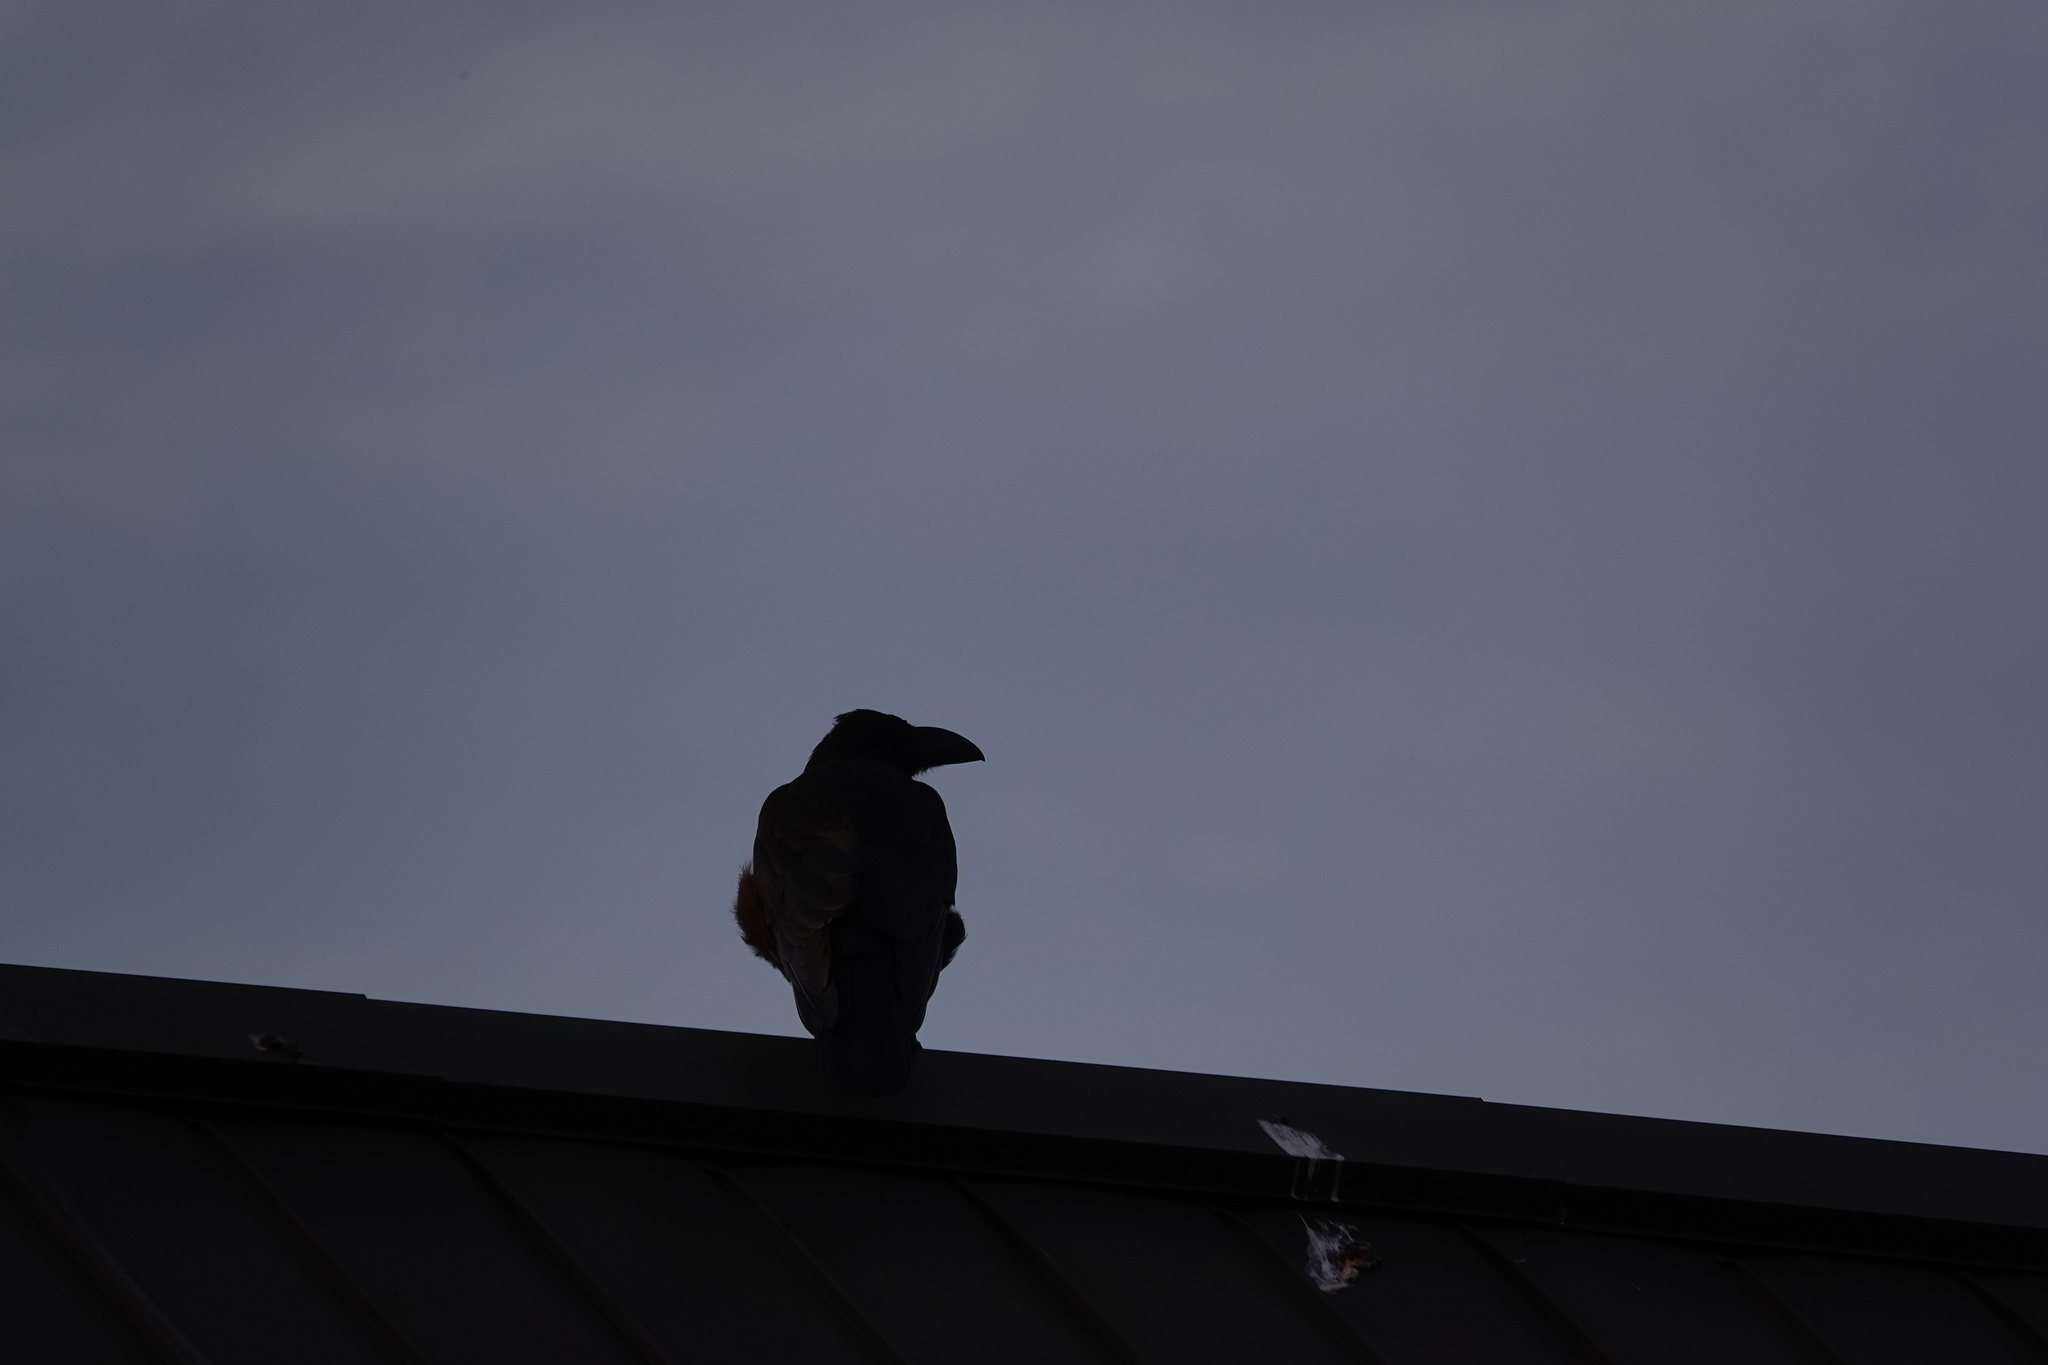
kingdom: Animalia
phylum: Chordata
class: Aves
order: Passeriformes
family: Corvidae
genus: Corvus
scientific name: Corvus macrorhynchos
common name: Large-billed crow
